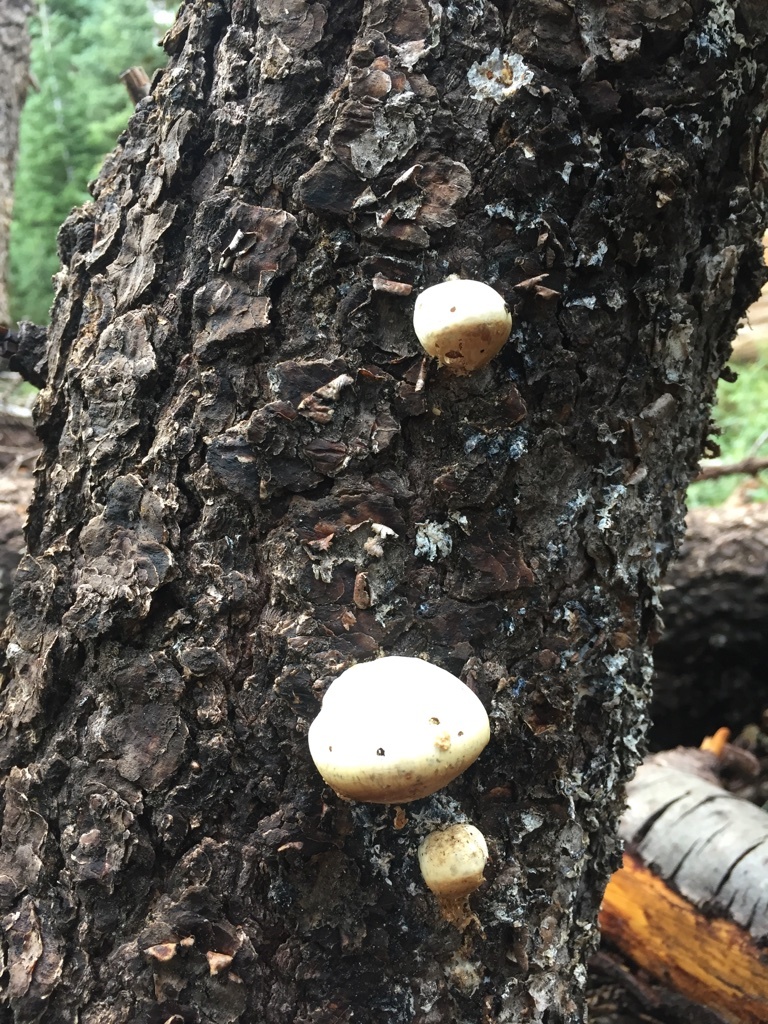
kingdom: Fungi
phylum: Basidiomycota
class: Agaricomycetes
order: Polyporales
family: Polyporaceae
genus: Cryptoporus
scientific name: Cryptoporus volvatus
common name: Veiled polypore
